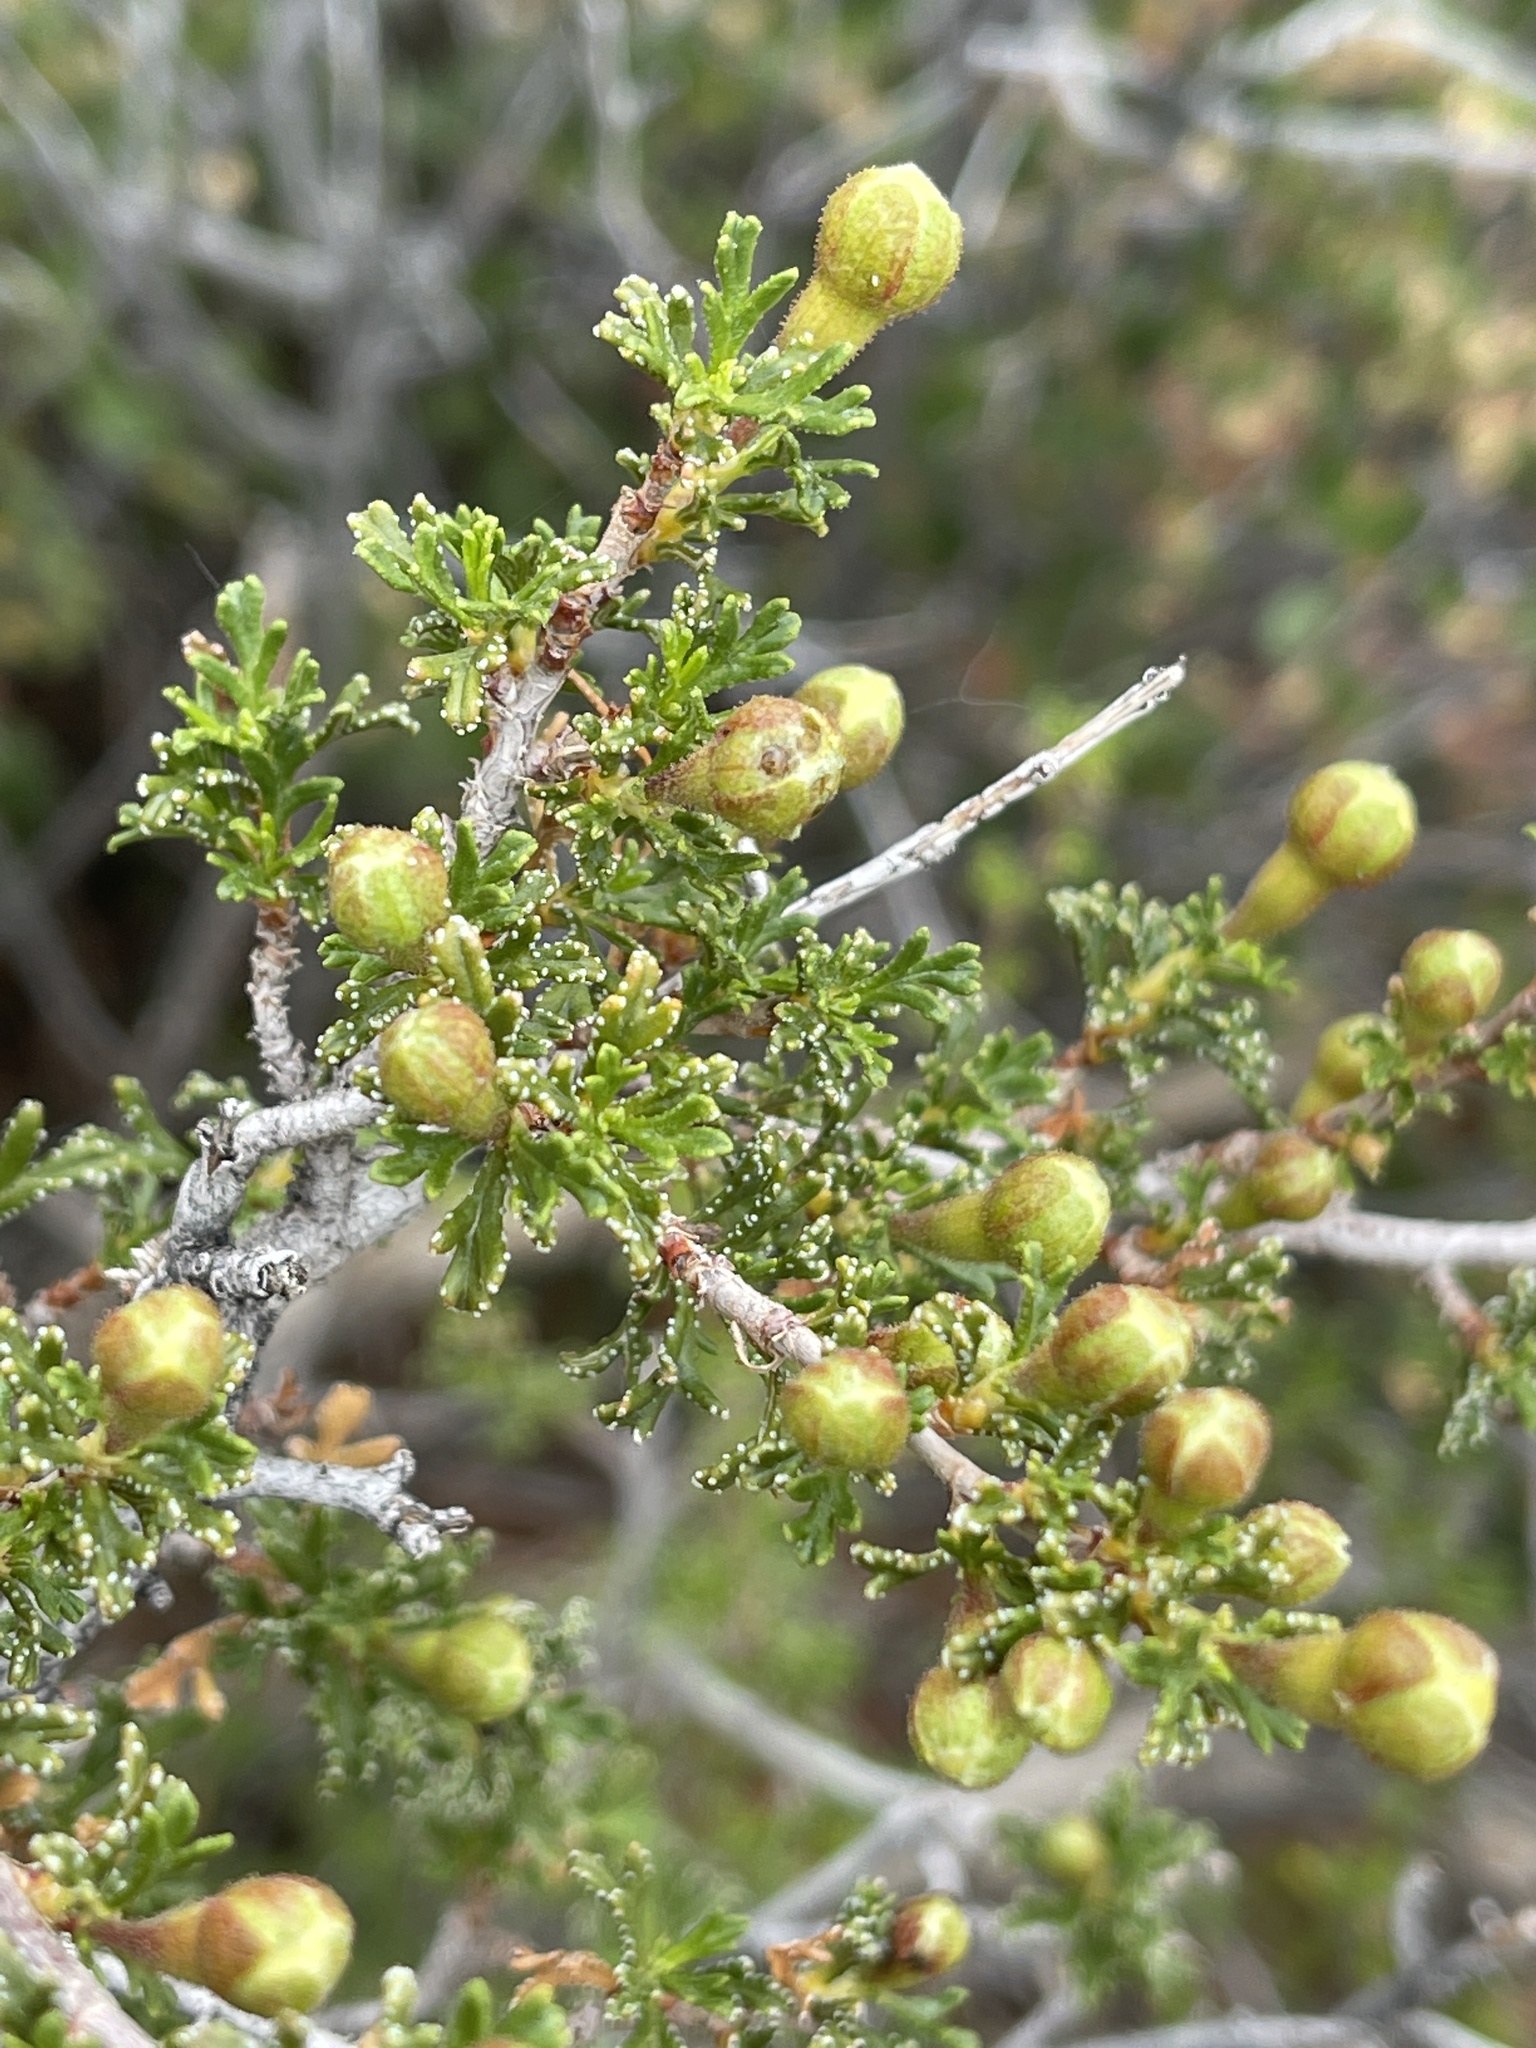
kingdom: Plantae
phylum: Tracheophyta
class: Magnoliopsida
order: Rosales
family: Rosaceae
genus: Purshia
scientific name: Purshia stansburiana
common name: Stansbury's cliffrose
